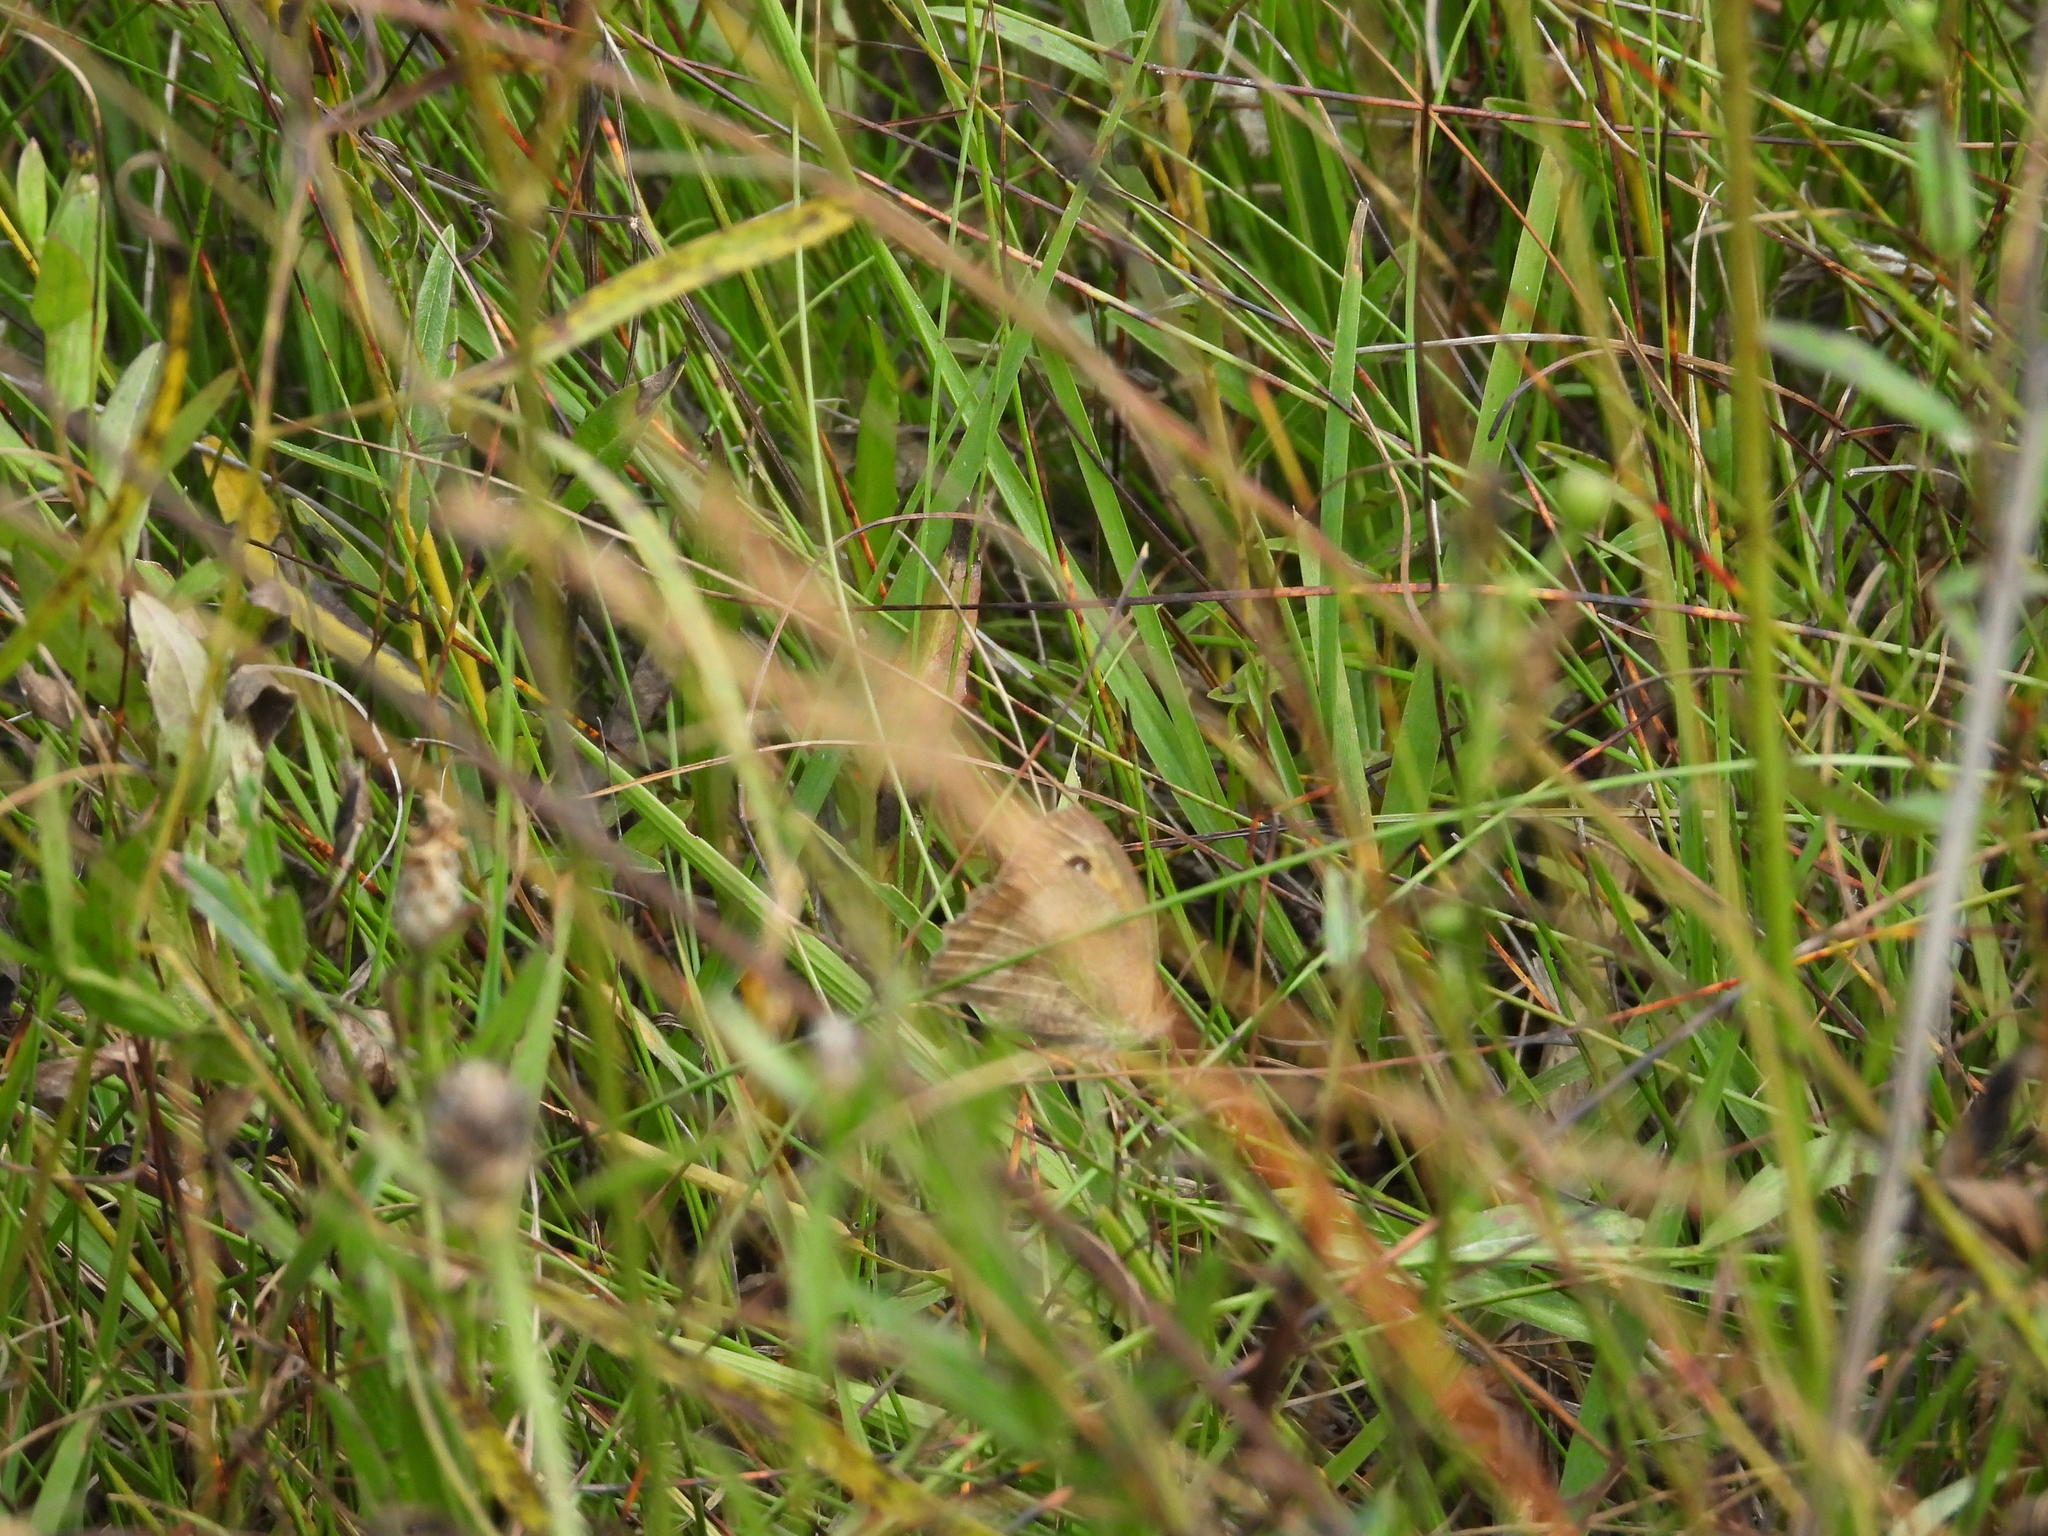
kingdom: Animalia
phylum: Arthropoda
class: Insecta
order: Lepidoptera
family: Nymphalidae
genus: Maniola
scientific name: Maniola jurtina
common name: Meadow brown
